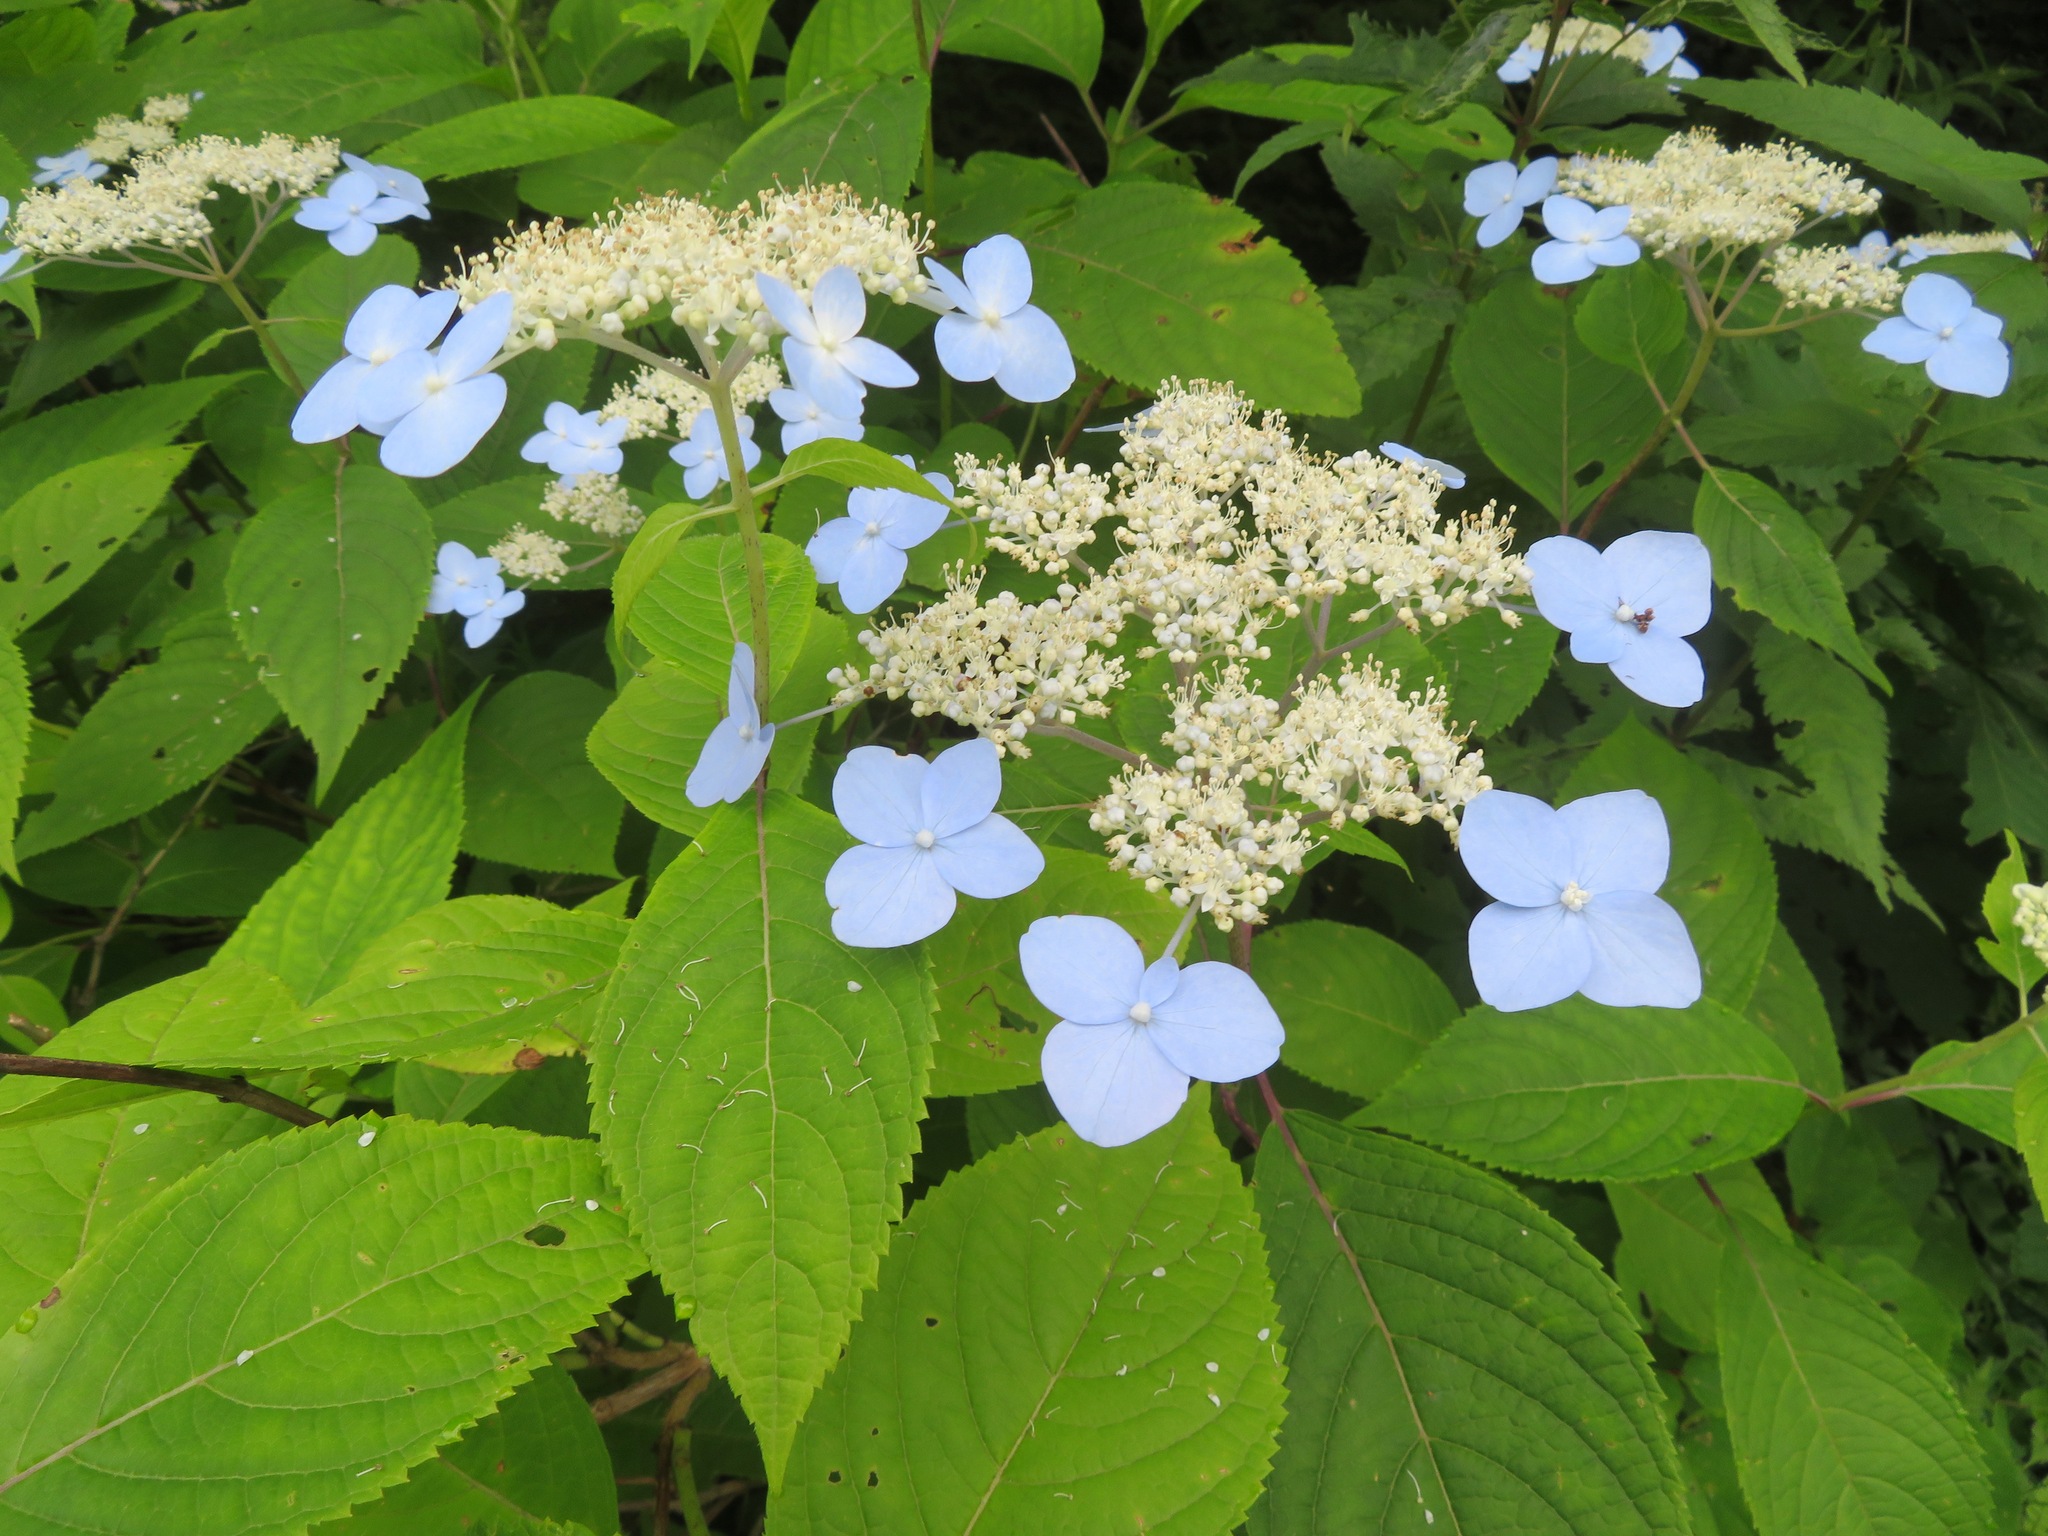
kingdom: Plantae
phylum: Tracheophyta
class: Magnoliopsida
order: Cornales
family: Hydrangeaceae
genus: Hydrangea
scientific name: Hydrangea serrata
